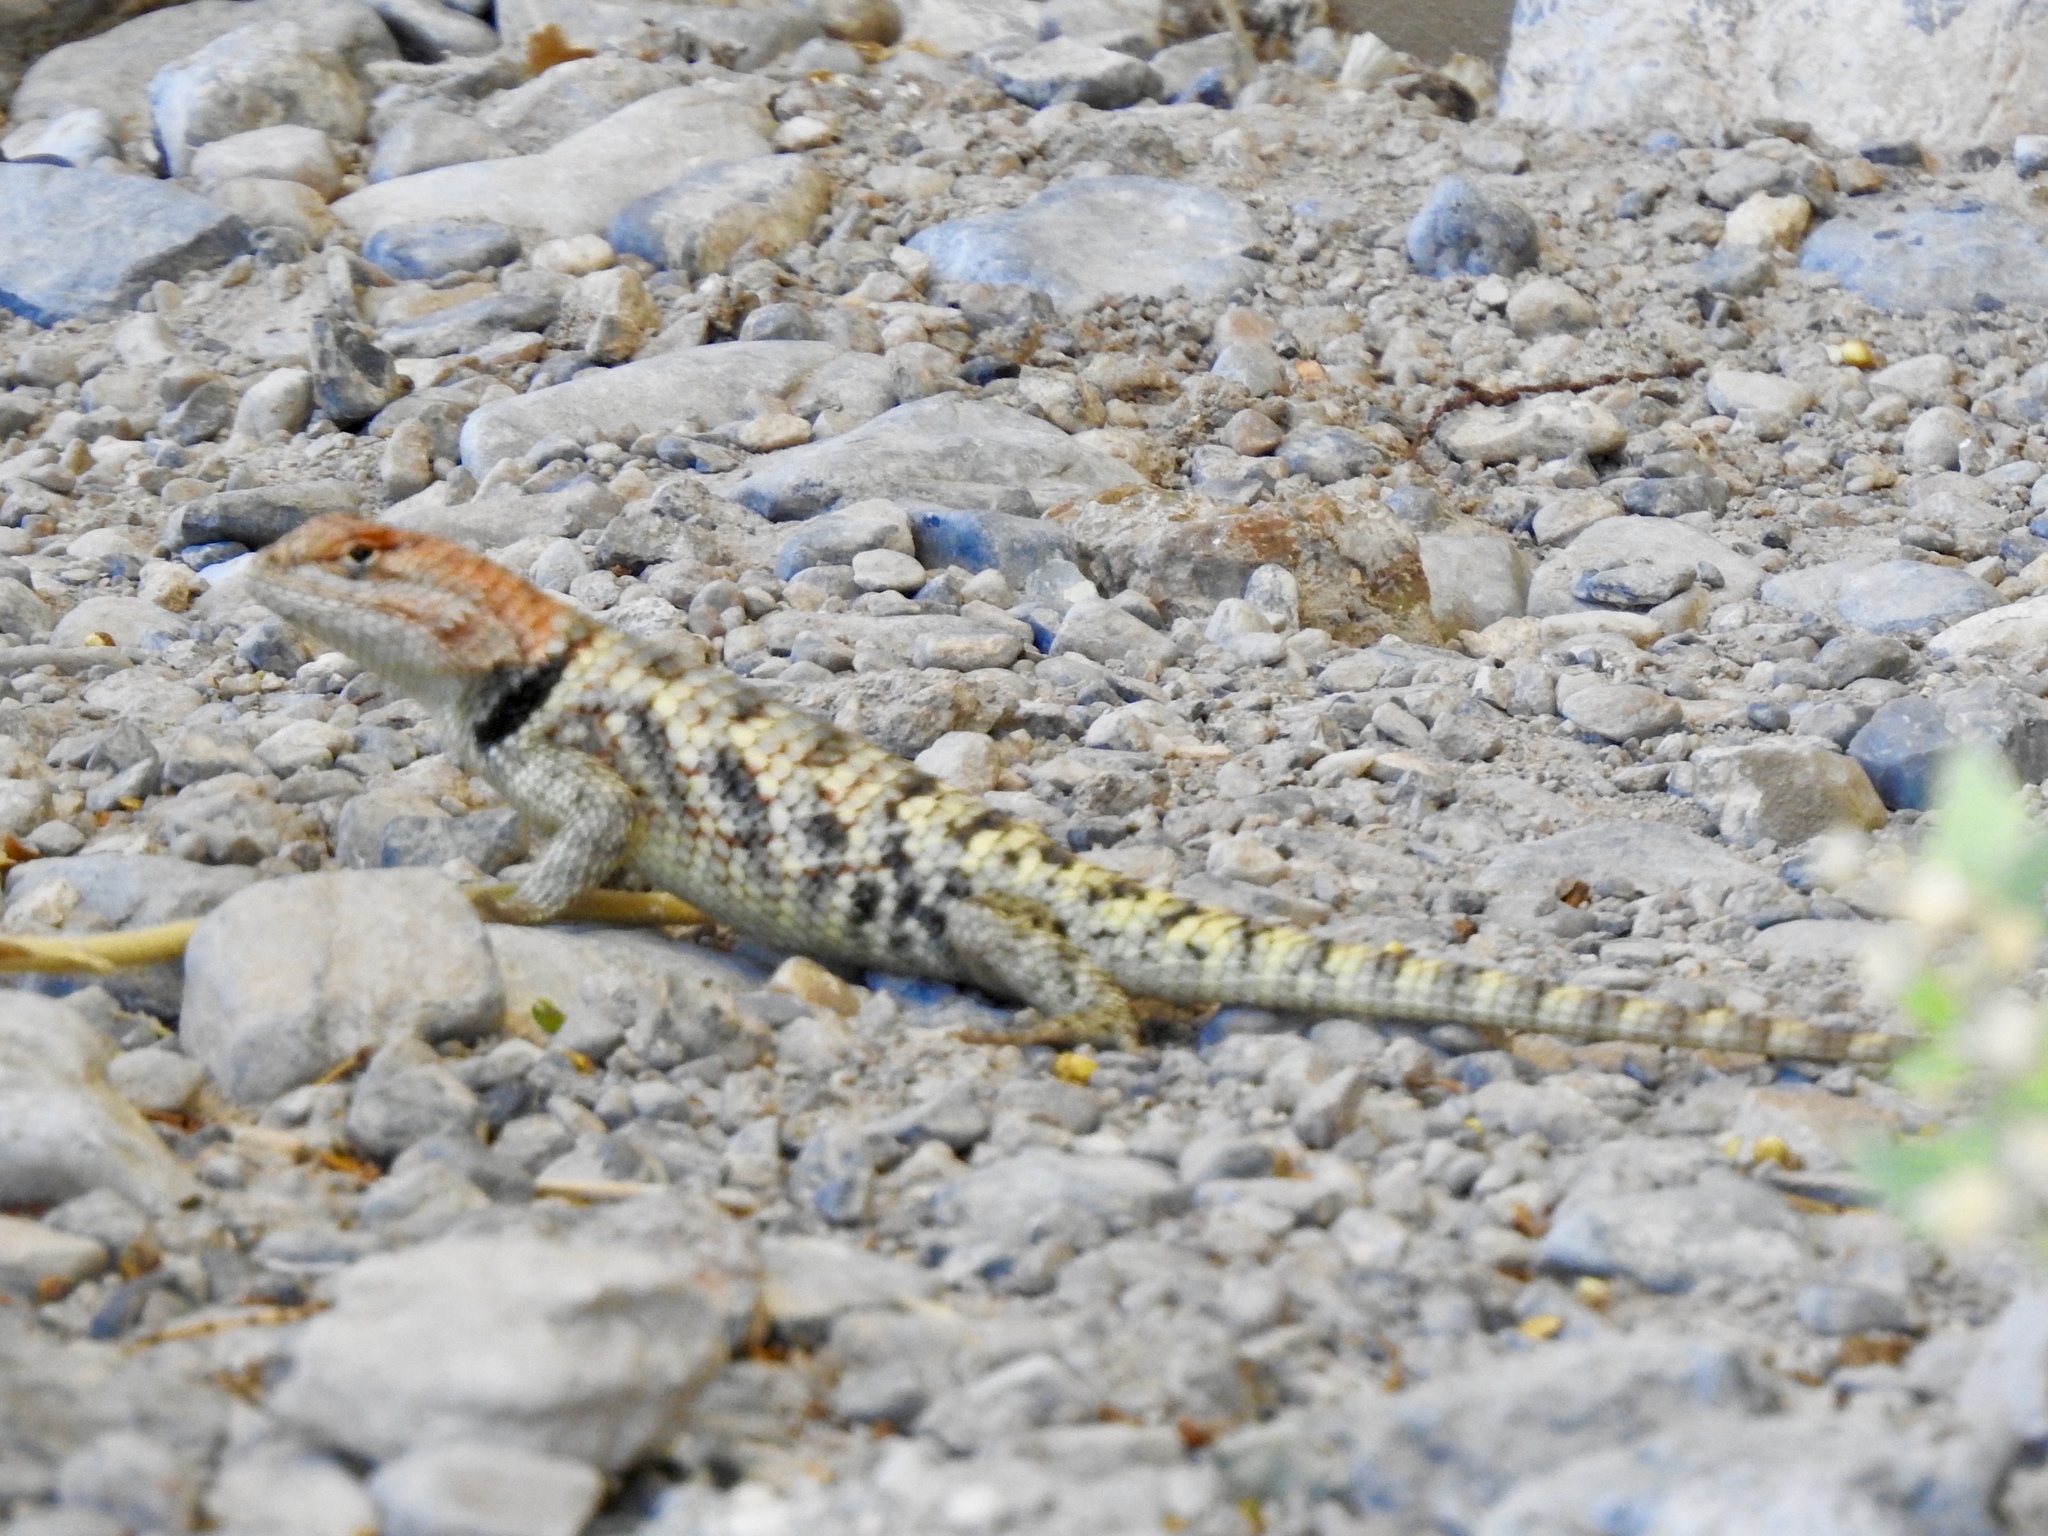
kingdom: Animalia
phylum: Chordata
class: Squamata
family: Phrynosomatidae
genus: Sceloporus
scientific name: Sceloporus uniformis
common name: Yellow-backed spiny lizard
